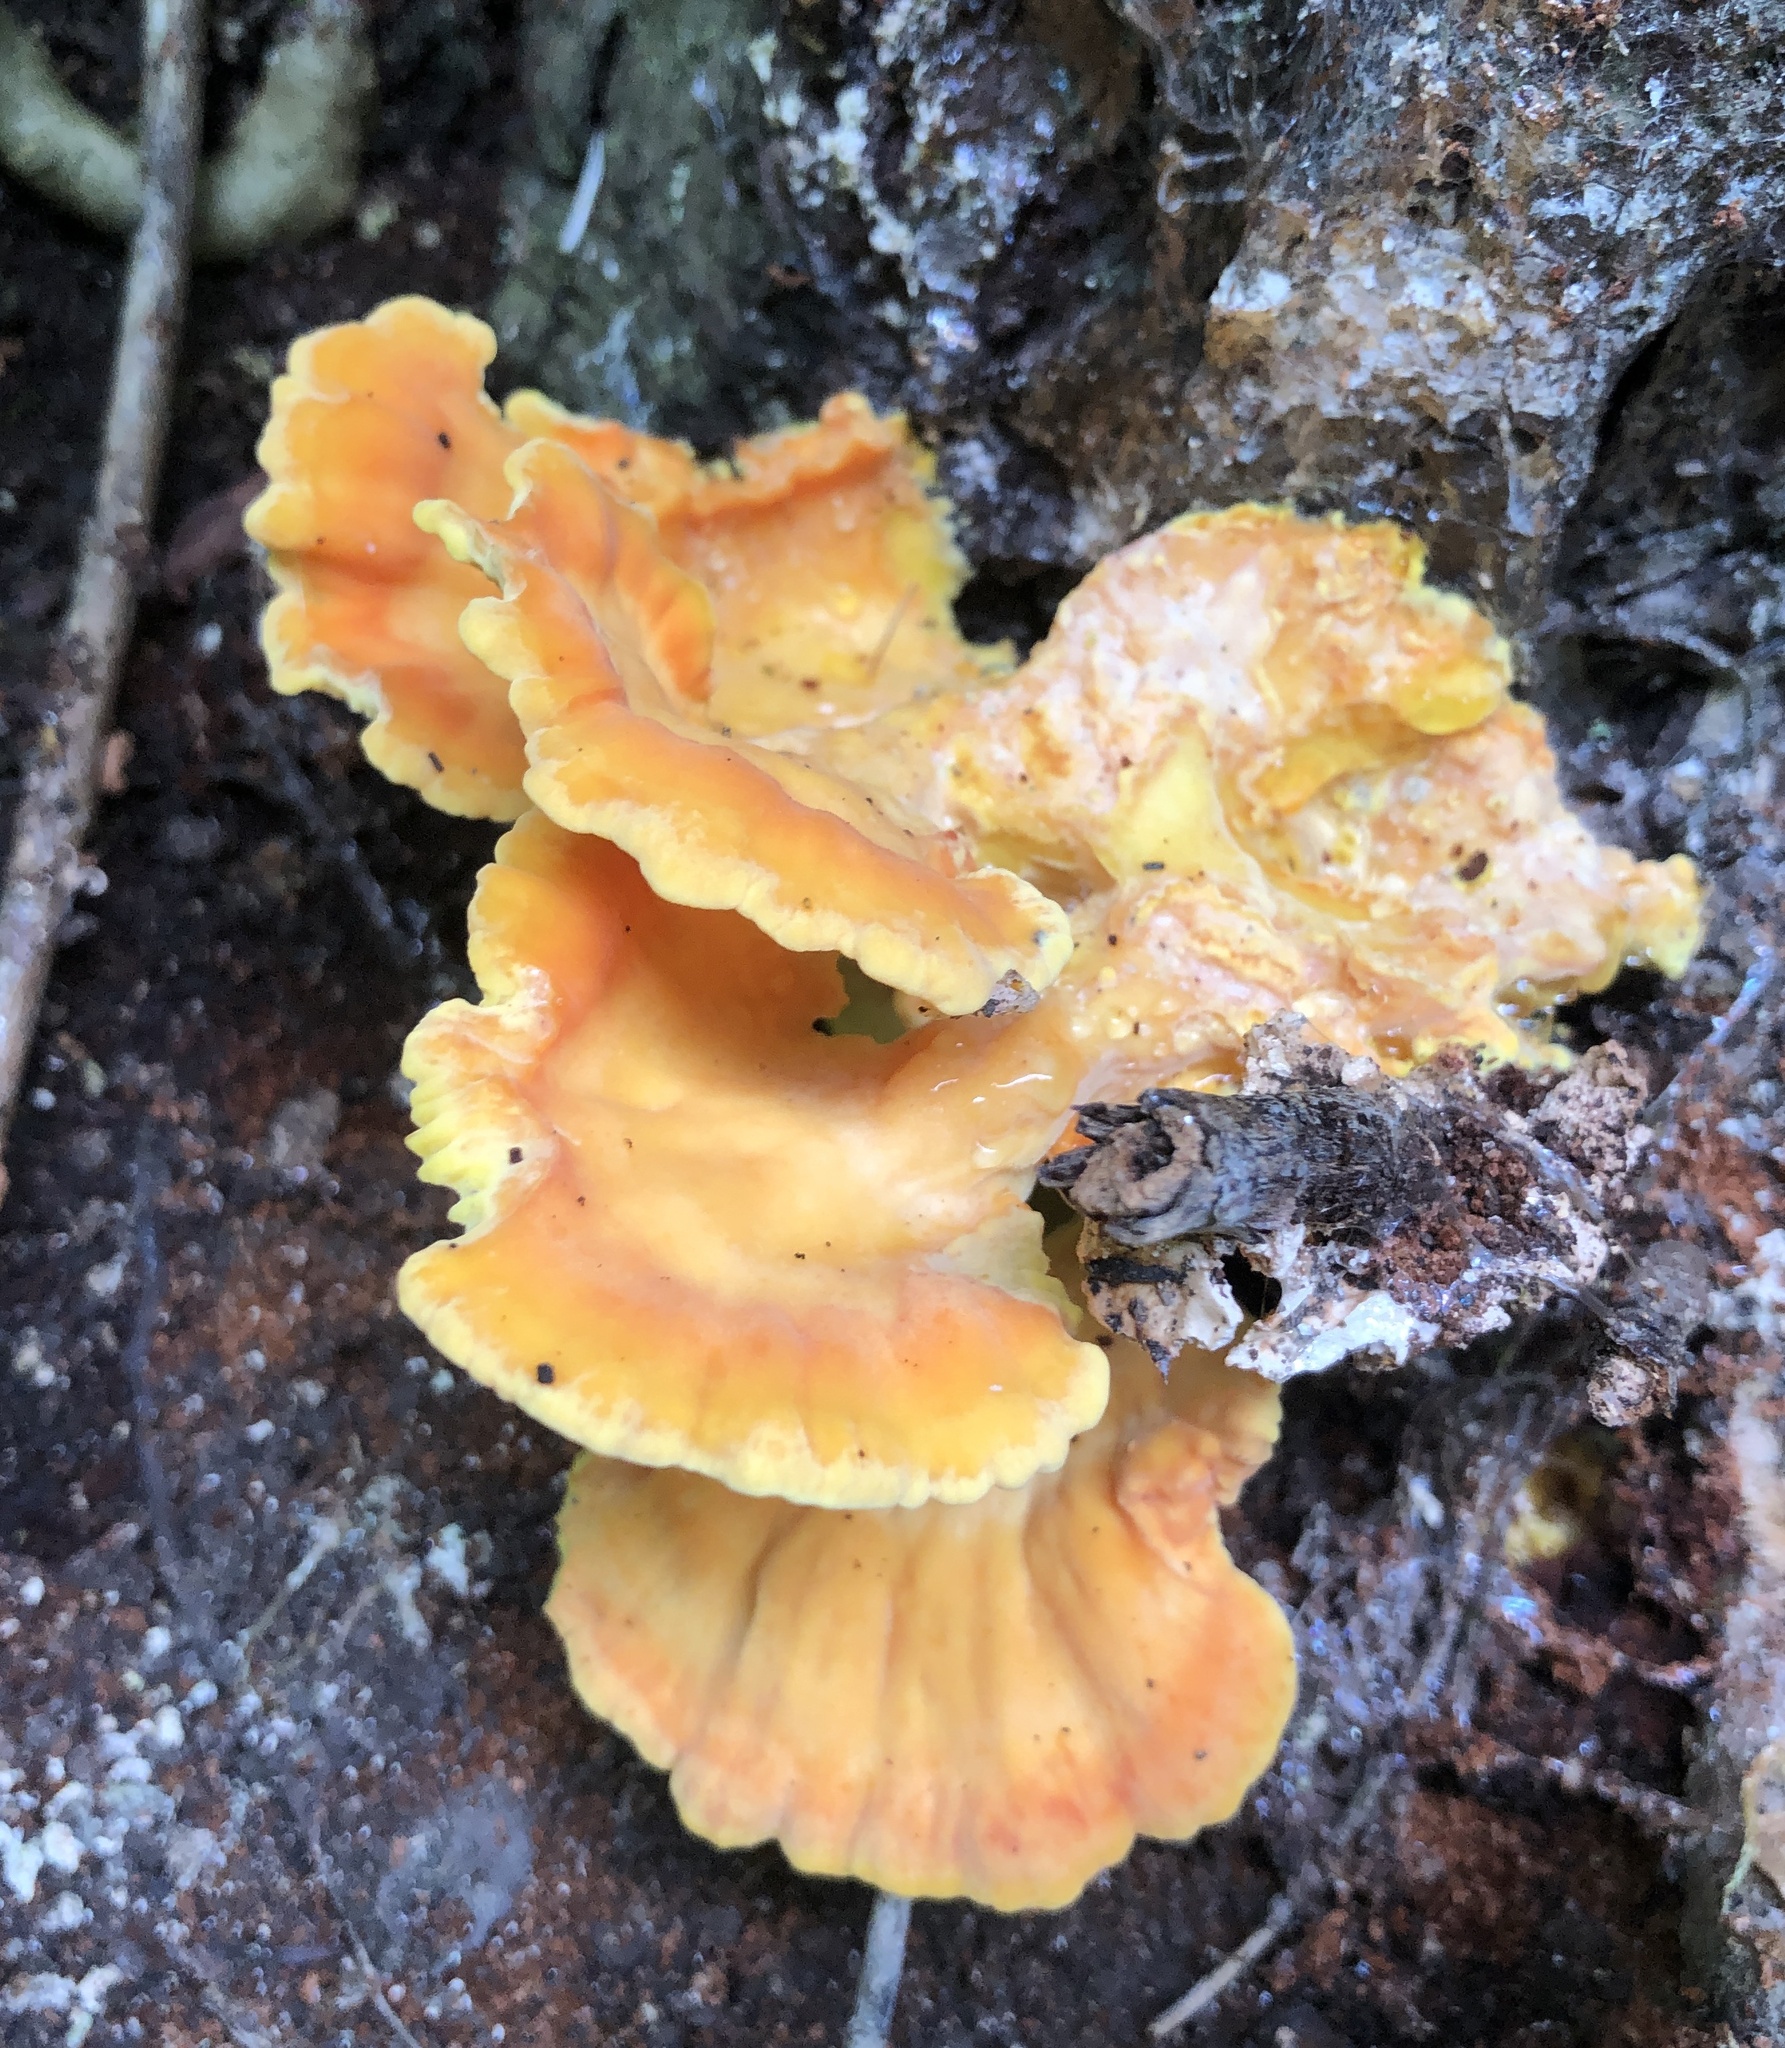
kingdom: Fungi
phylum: Basidiomycota
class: Agaricomycetes
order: Polyporales
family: Laetiporaceae
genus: Laetiporus
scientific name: Laetiporus sulphureus
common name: Chicken of the woods
